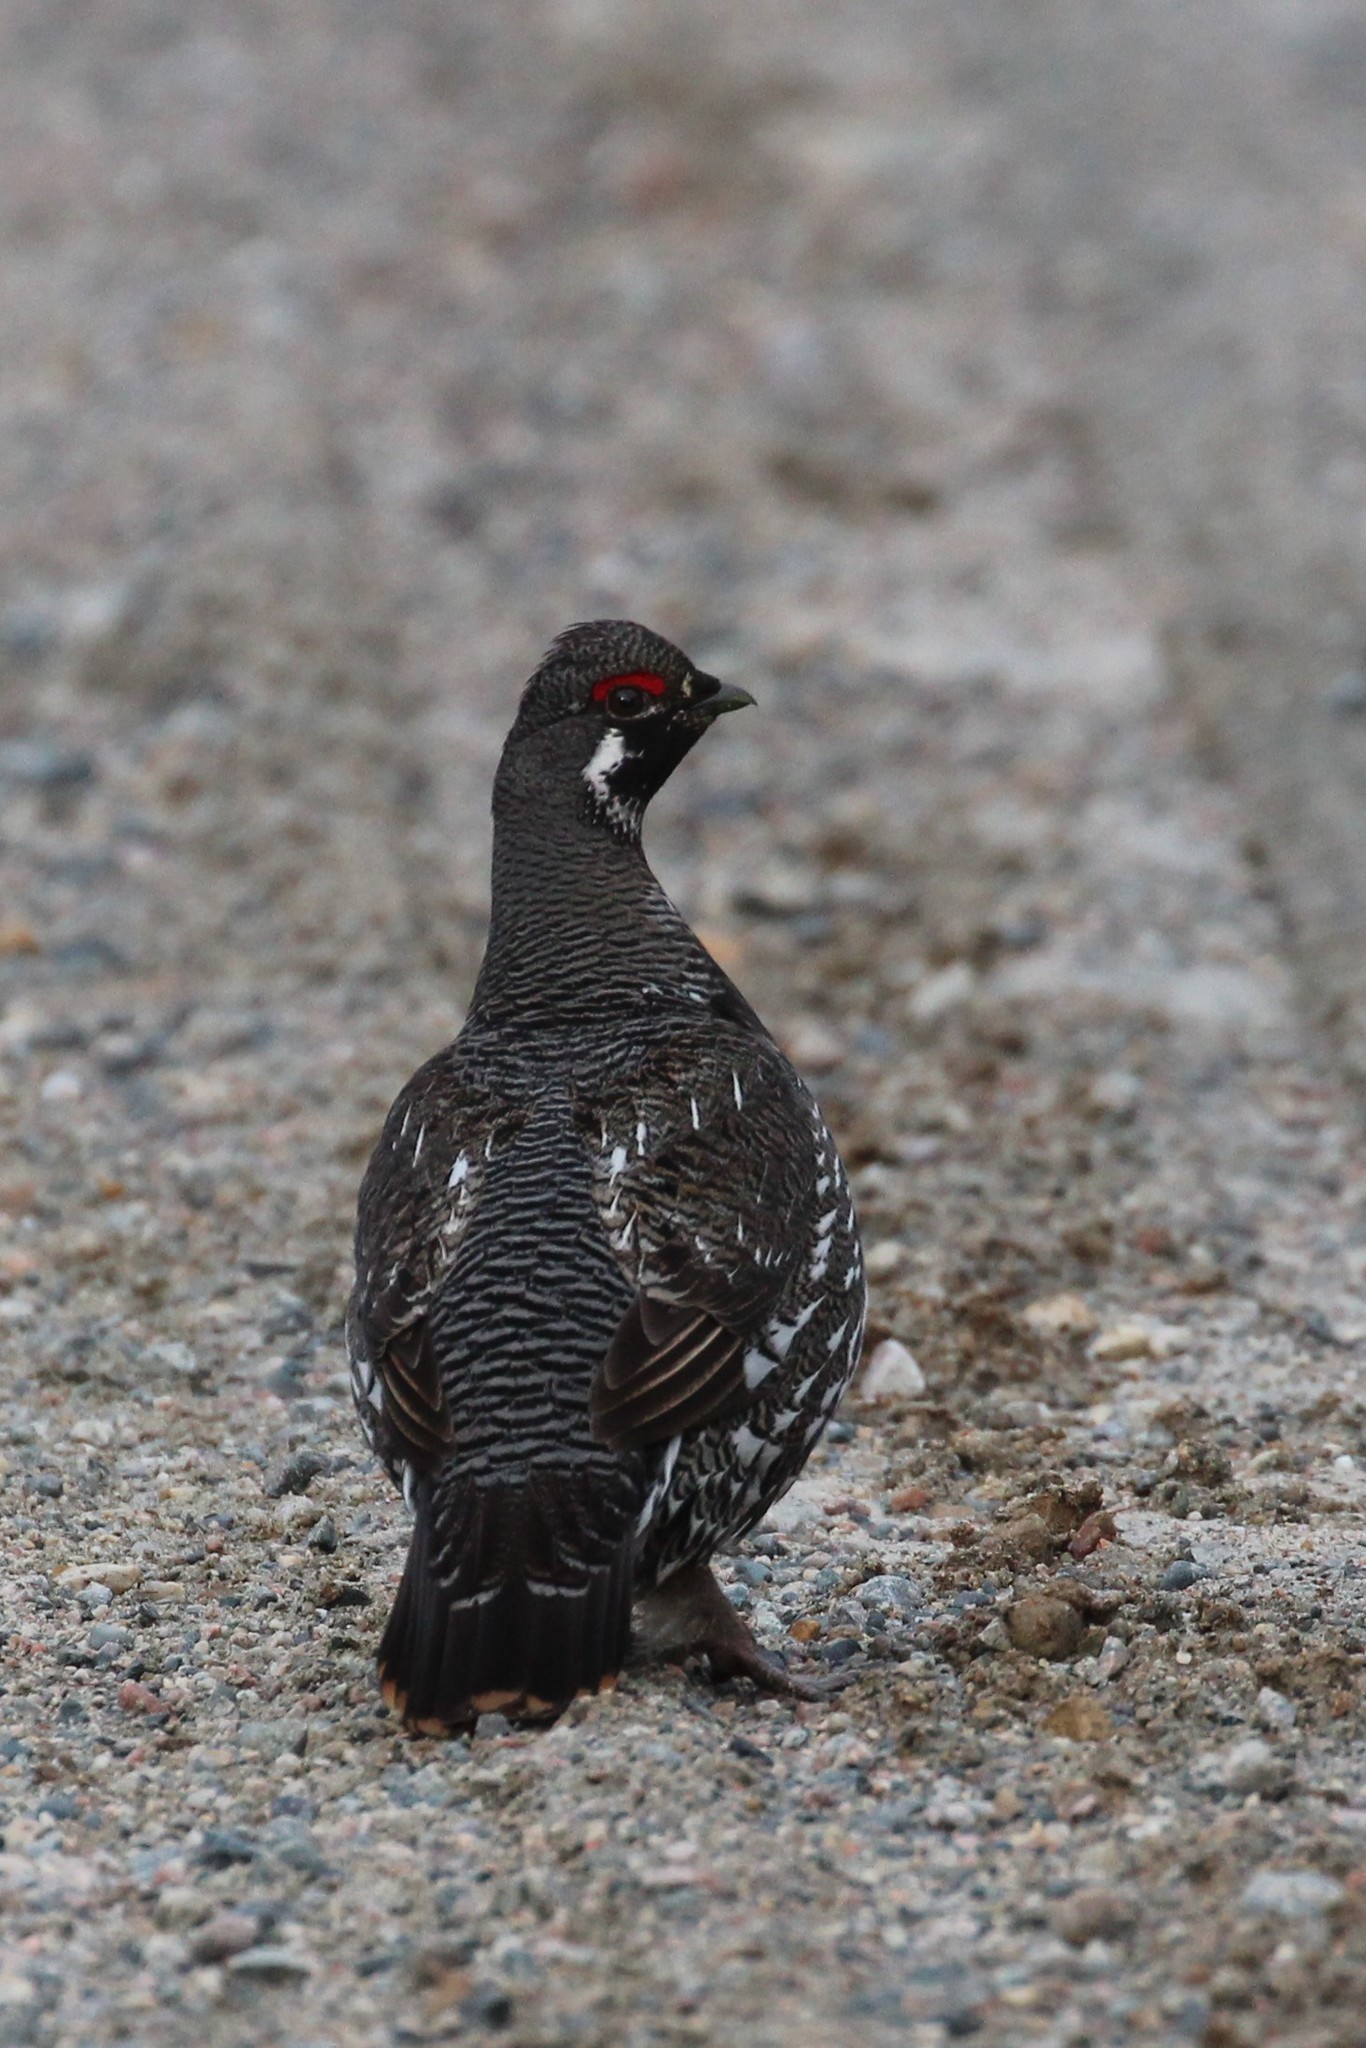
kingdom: Animalia
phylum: Chordata
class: Aves
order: Galliformes
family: Phasianidae
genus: Canachites
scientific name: Canachites canadensis
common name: Spruce grouse
